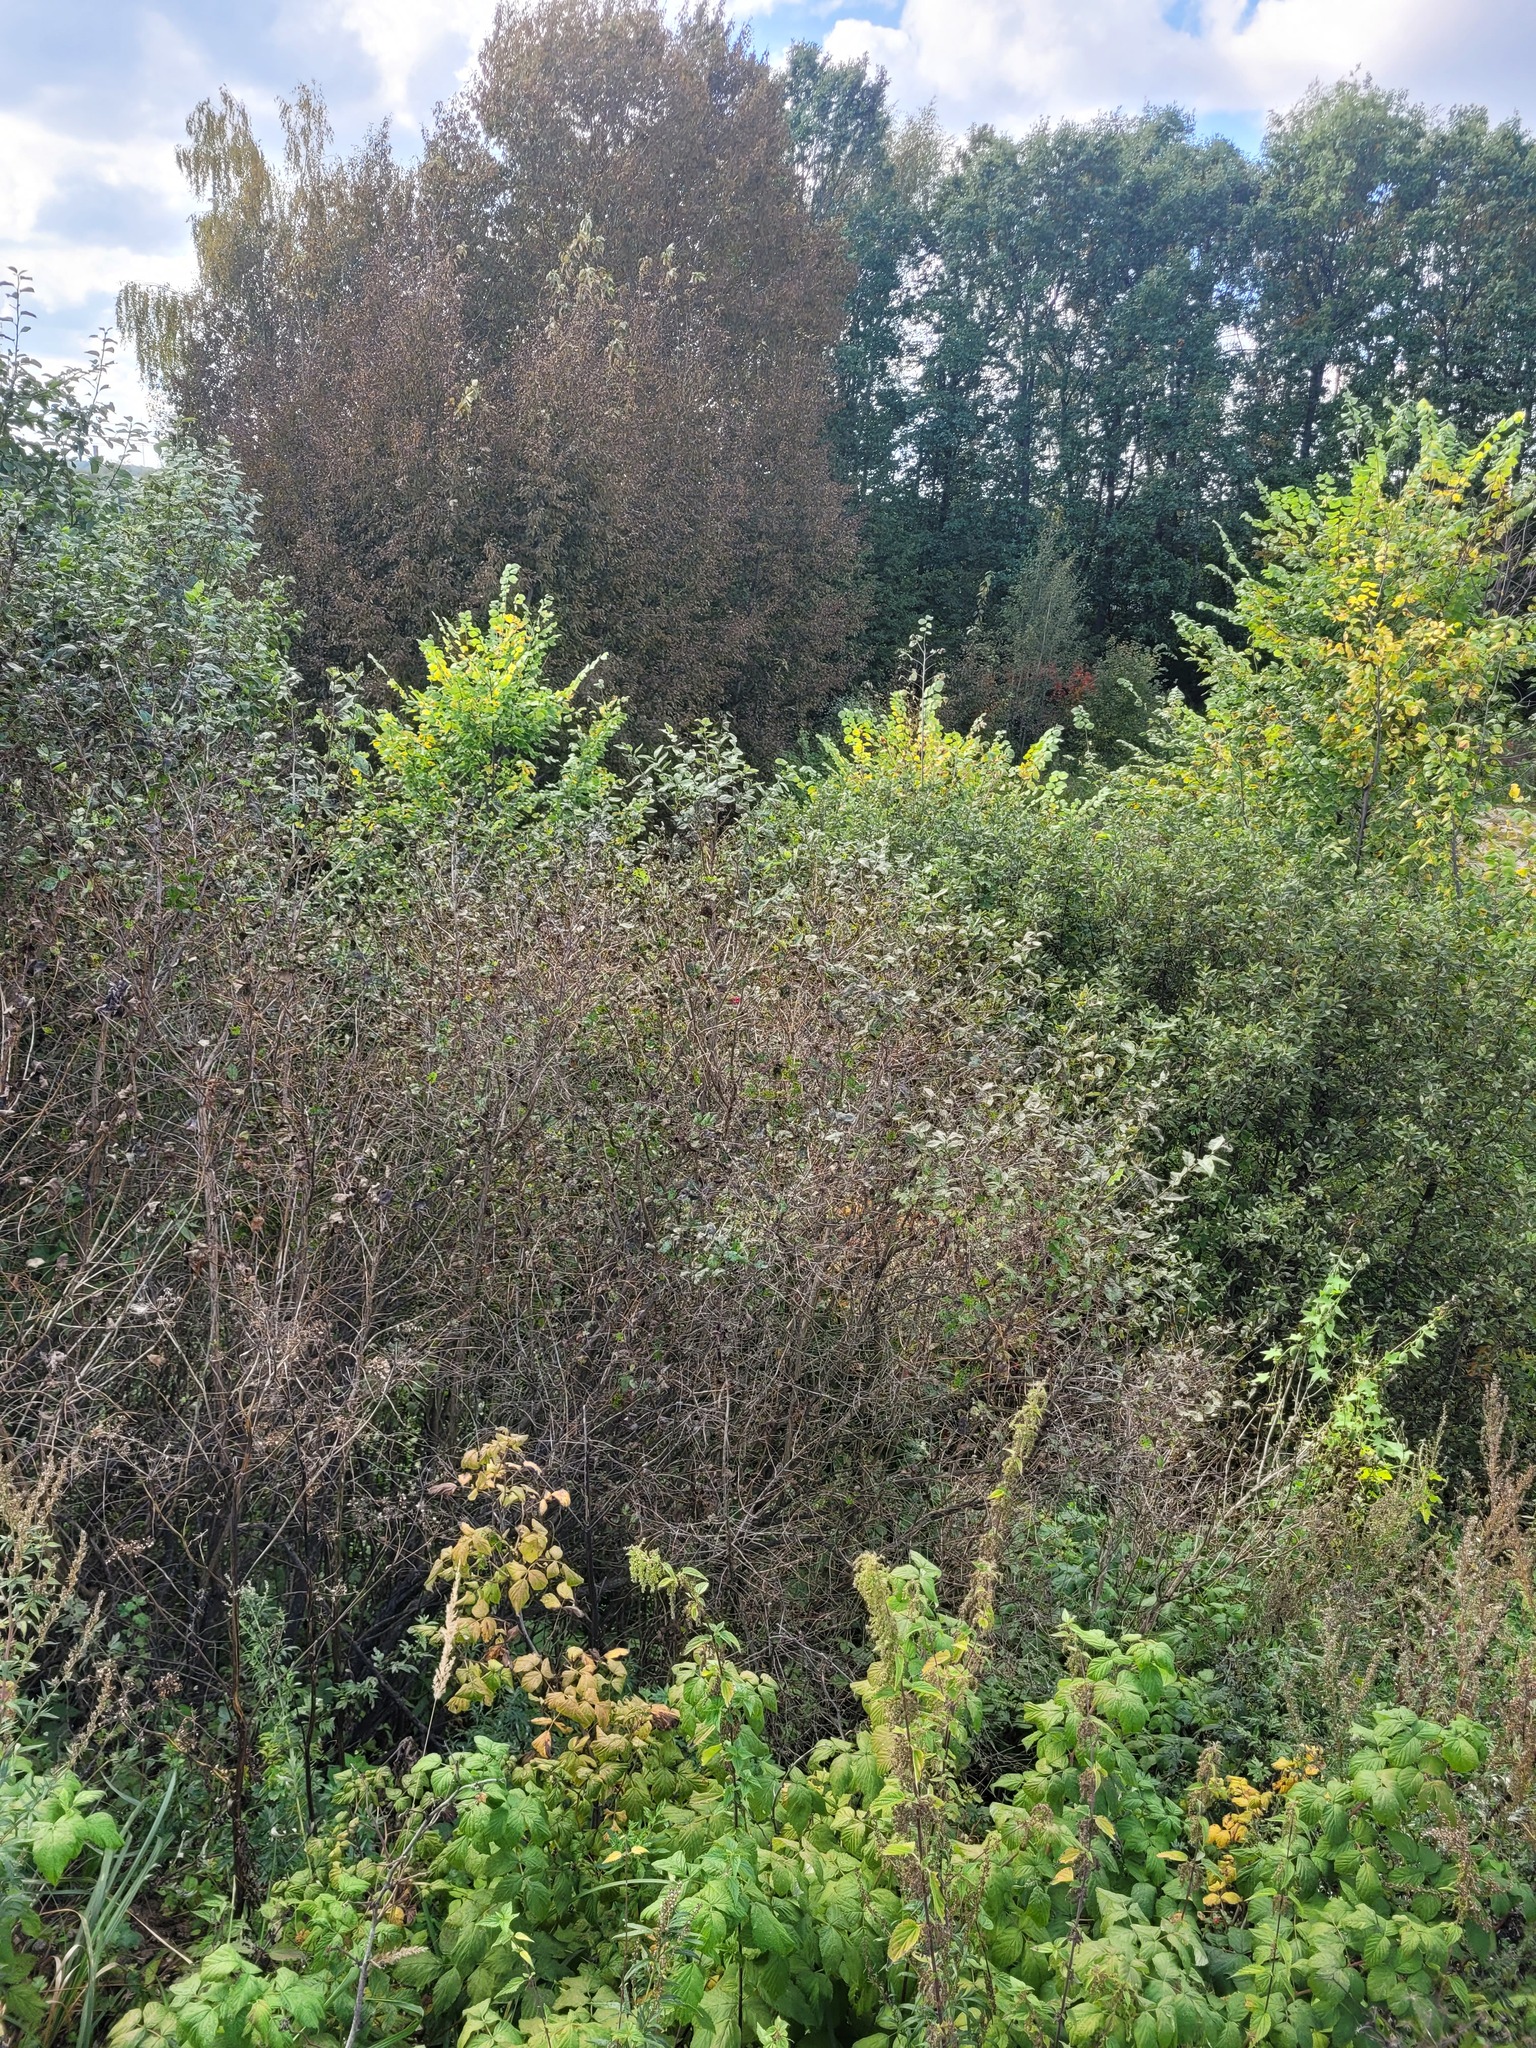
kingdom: Plantae
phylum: Tracheophyta
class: Magnoliopsida
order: Dipsacales
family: Caprifoliaceae
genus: Lonicera
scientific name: Lonicera tatarica
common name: Tatarian honeysuckle
